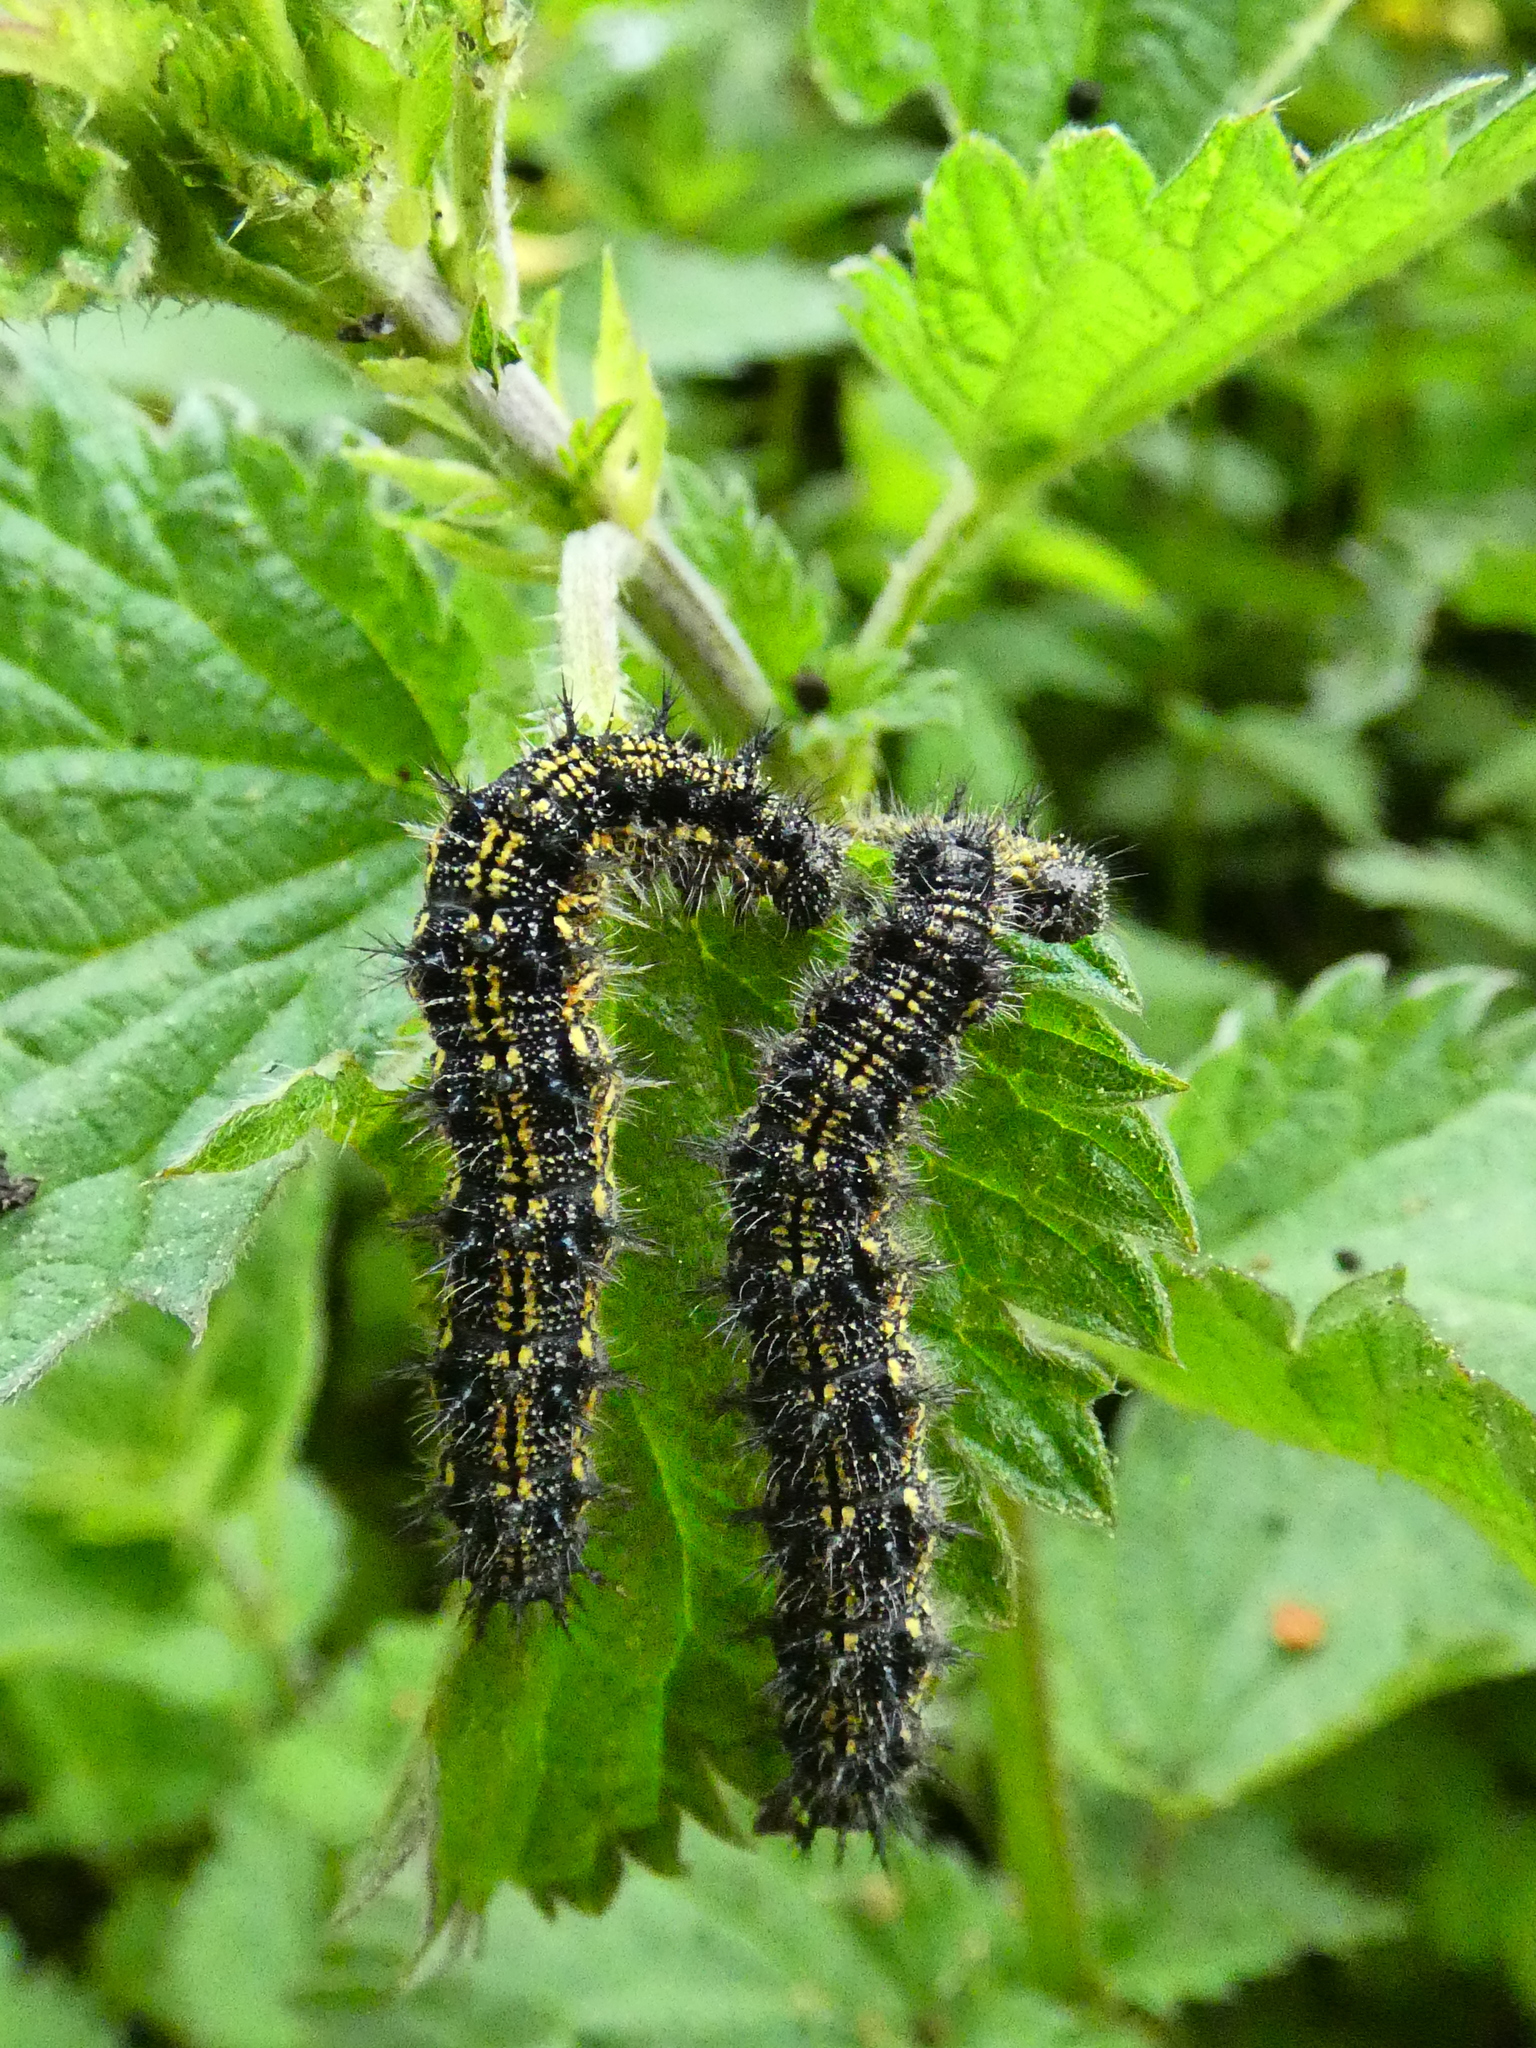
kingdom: Animalia
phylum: Arthropoda
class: Insecta
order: Lepidoptera
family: Nymphalidae
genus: Aglais
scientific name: Aglais urticae
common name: Small tortoiseshell
